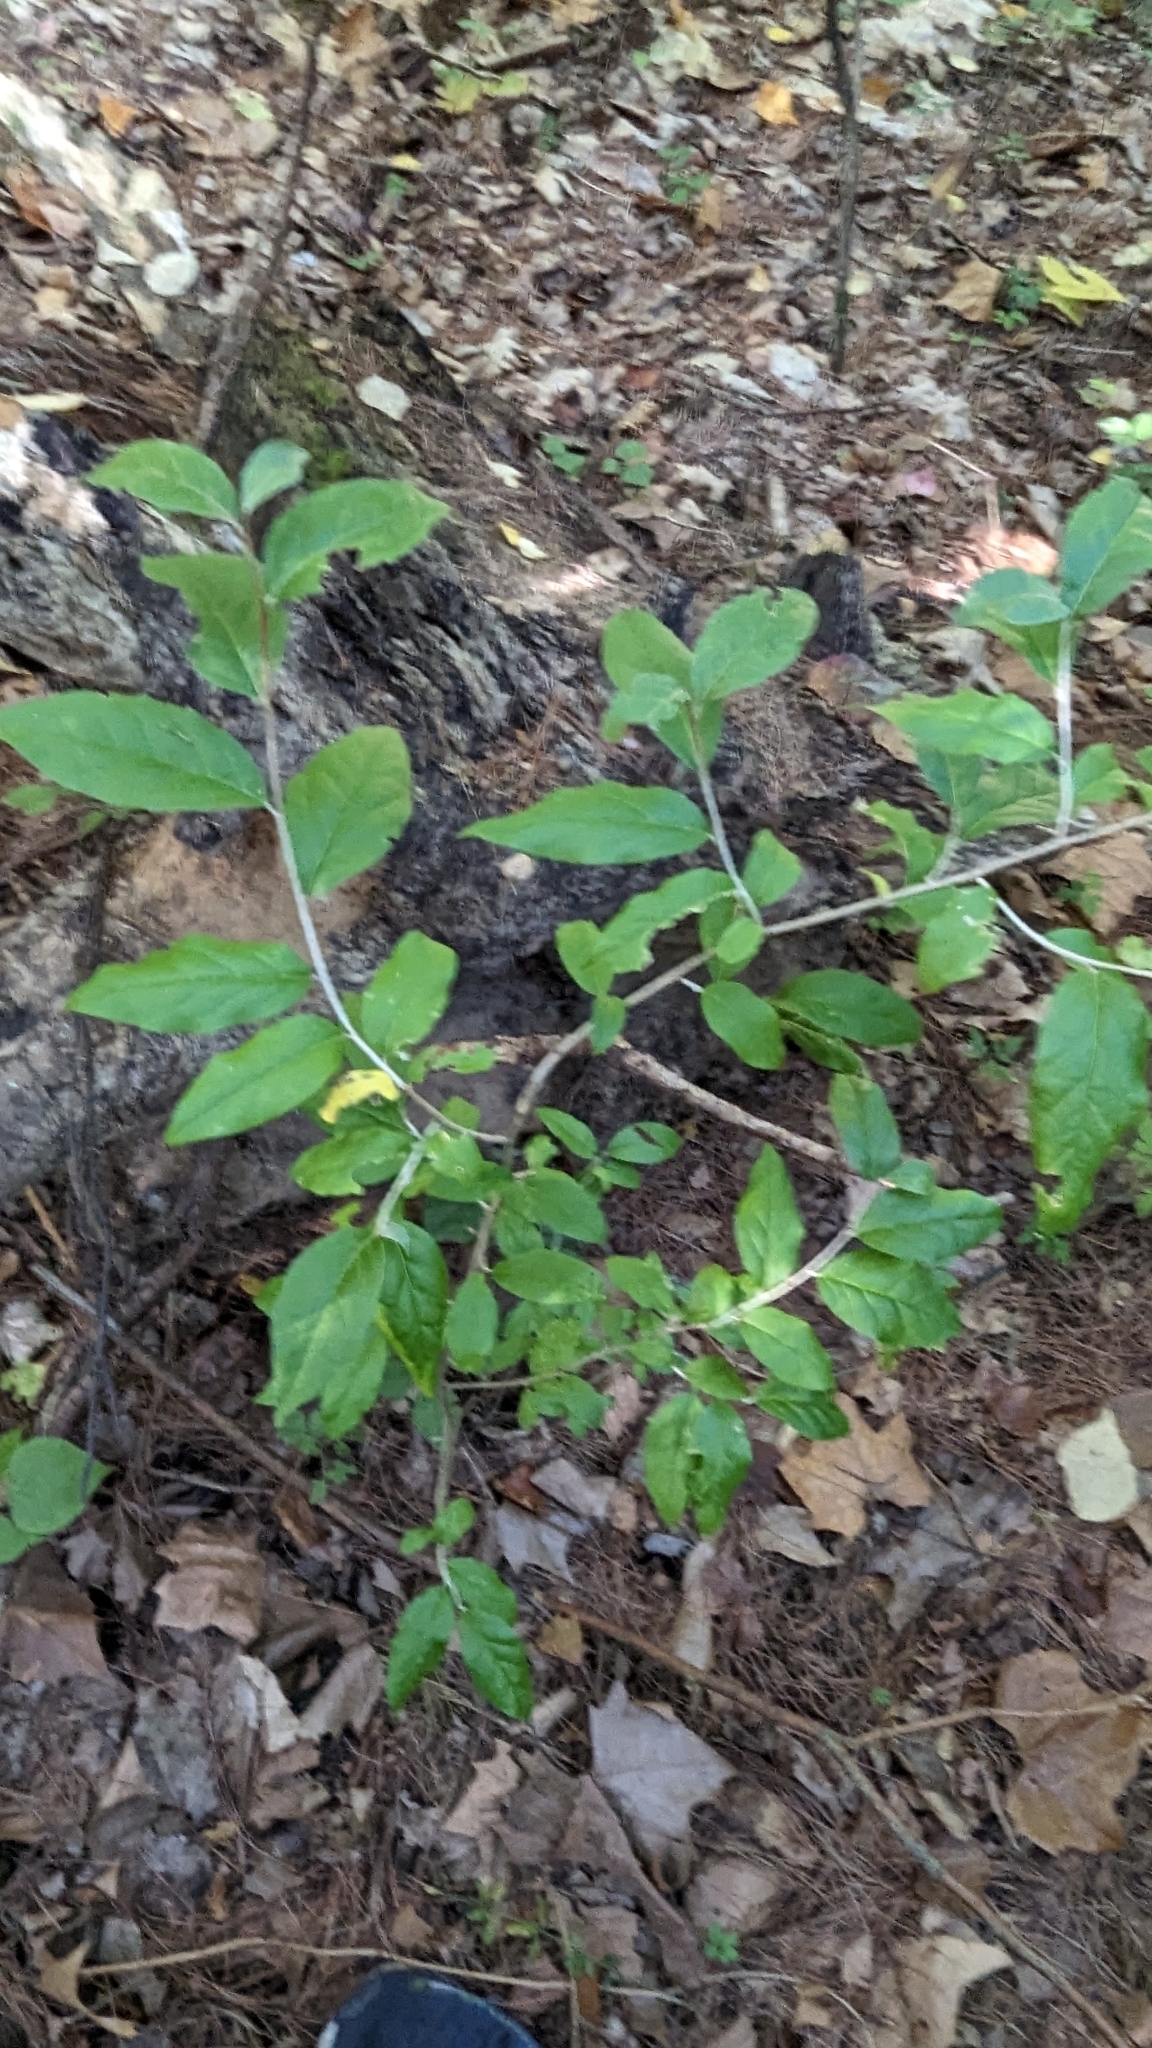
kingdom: Plantae
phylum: Tracheophyta
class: Magnoliopsida
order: Rosales
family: Elaeagnaceae
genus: Elaeagnus
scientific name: Elaeagnus umbellata
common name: Autumn olive
